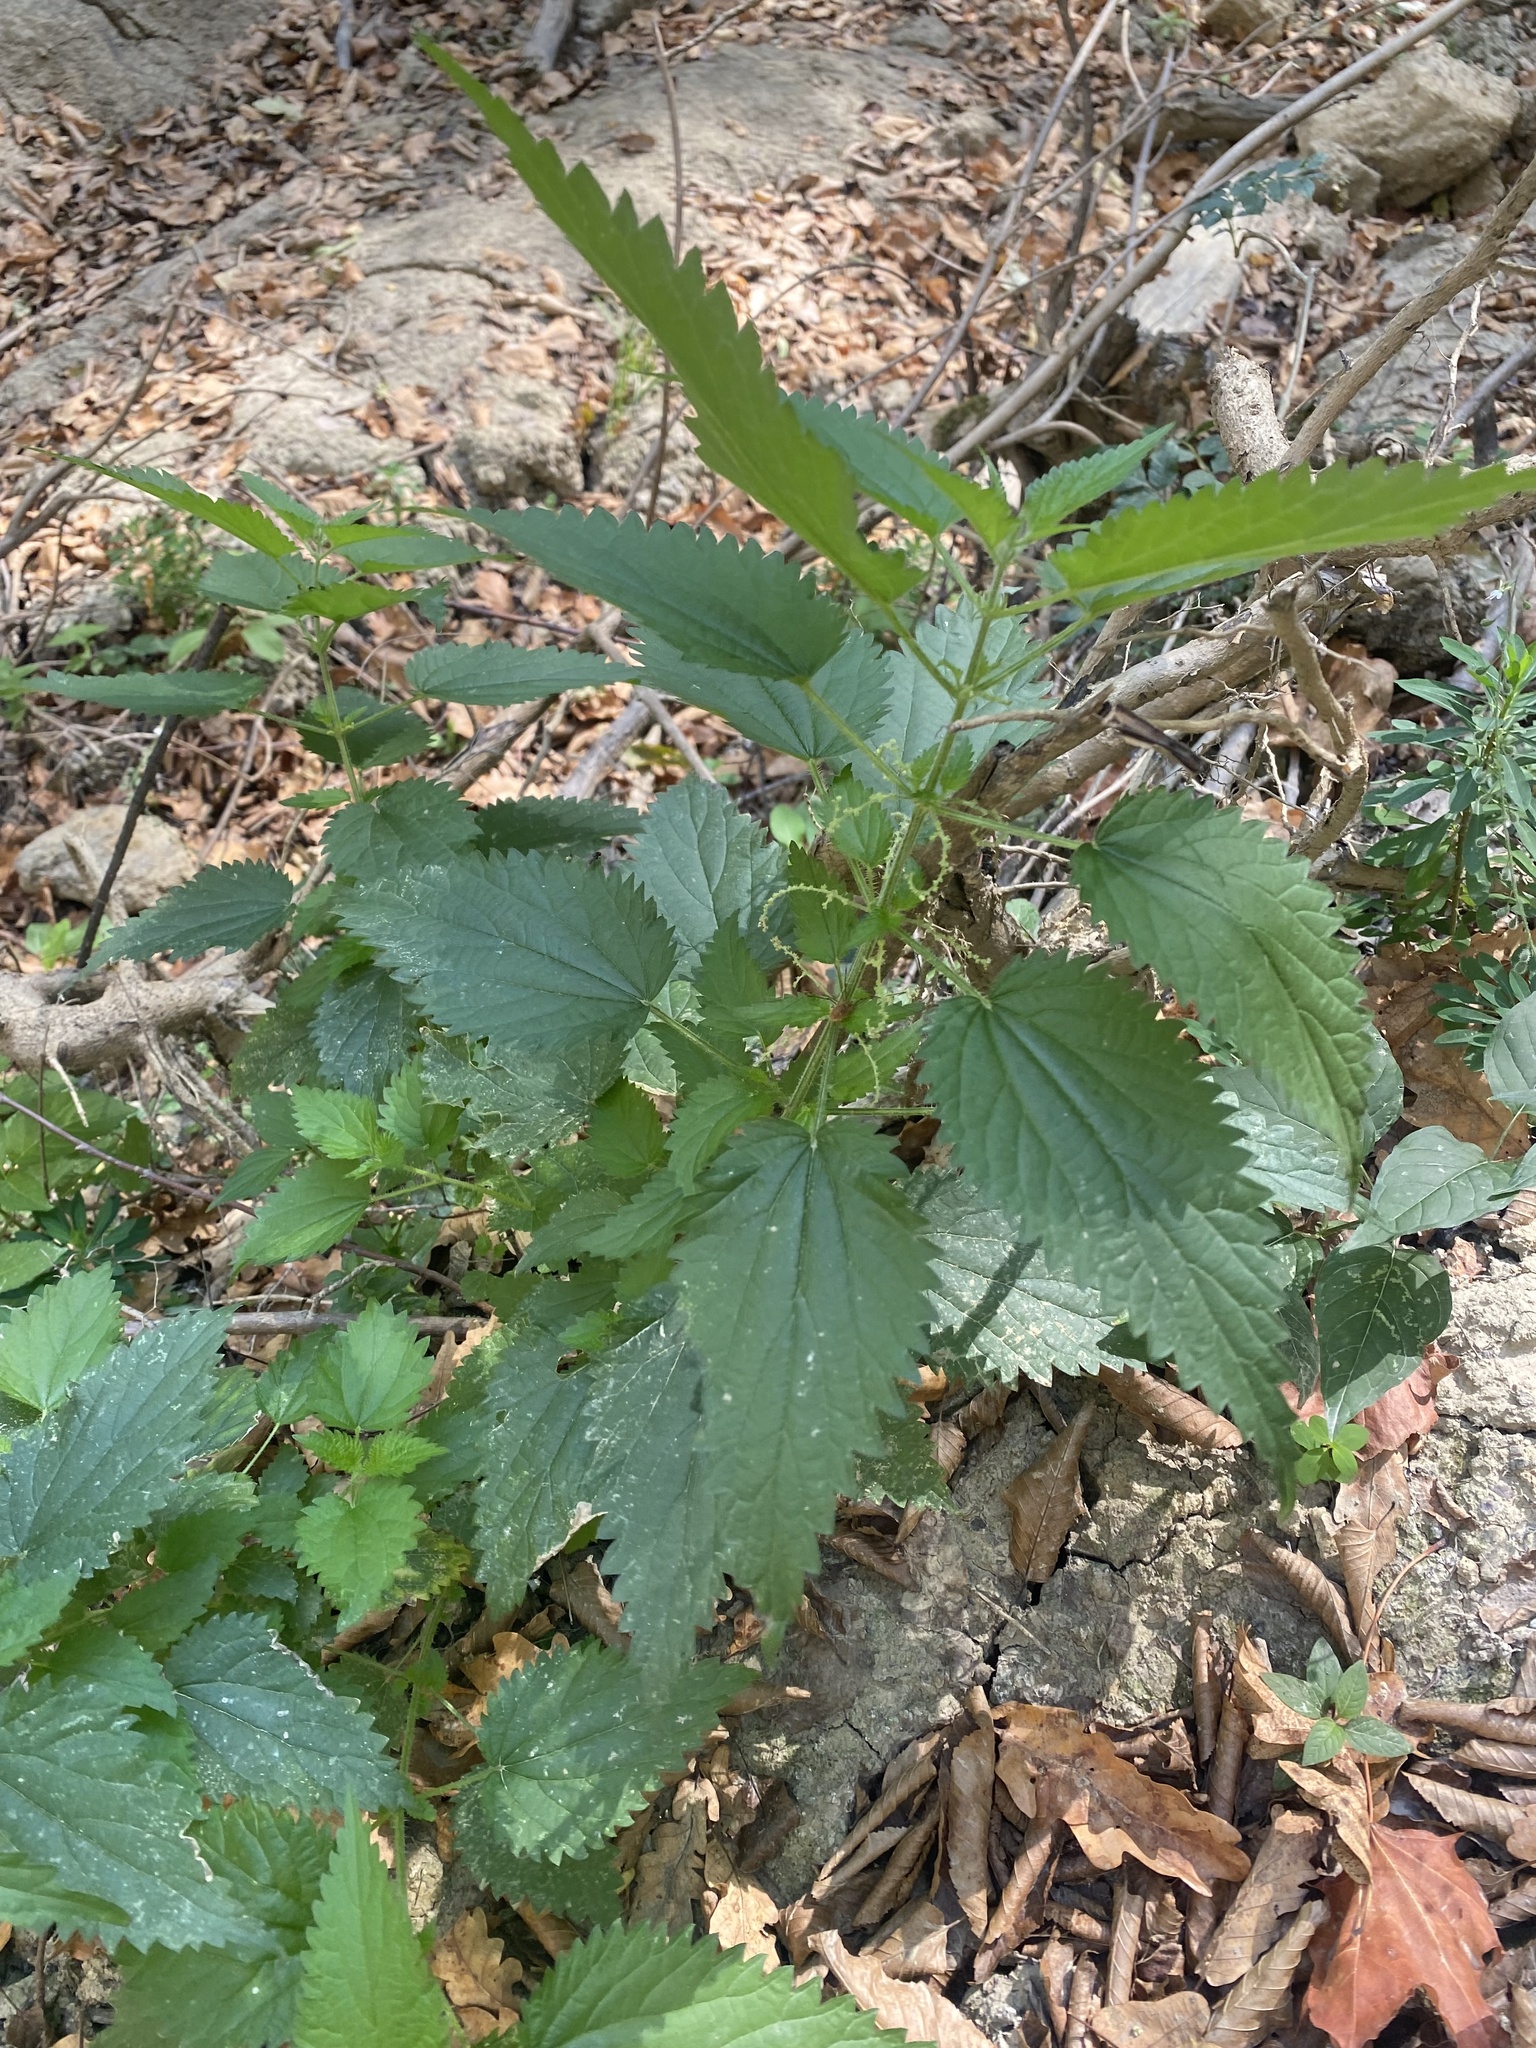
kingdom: Plantae
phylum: Tracheophyta
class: Magnoliopsida
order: Rosales
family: Urticaceae
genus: Urtica
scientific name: Urtica dioica
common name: Common nettle
